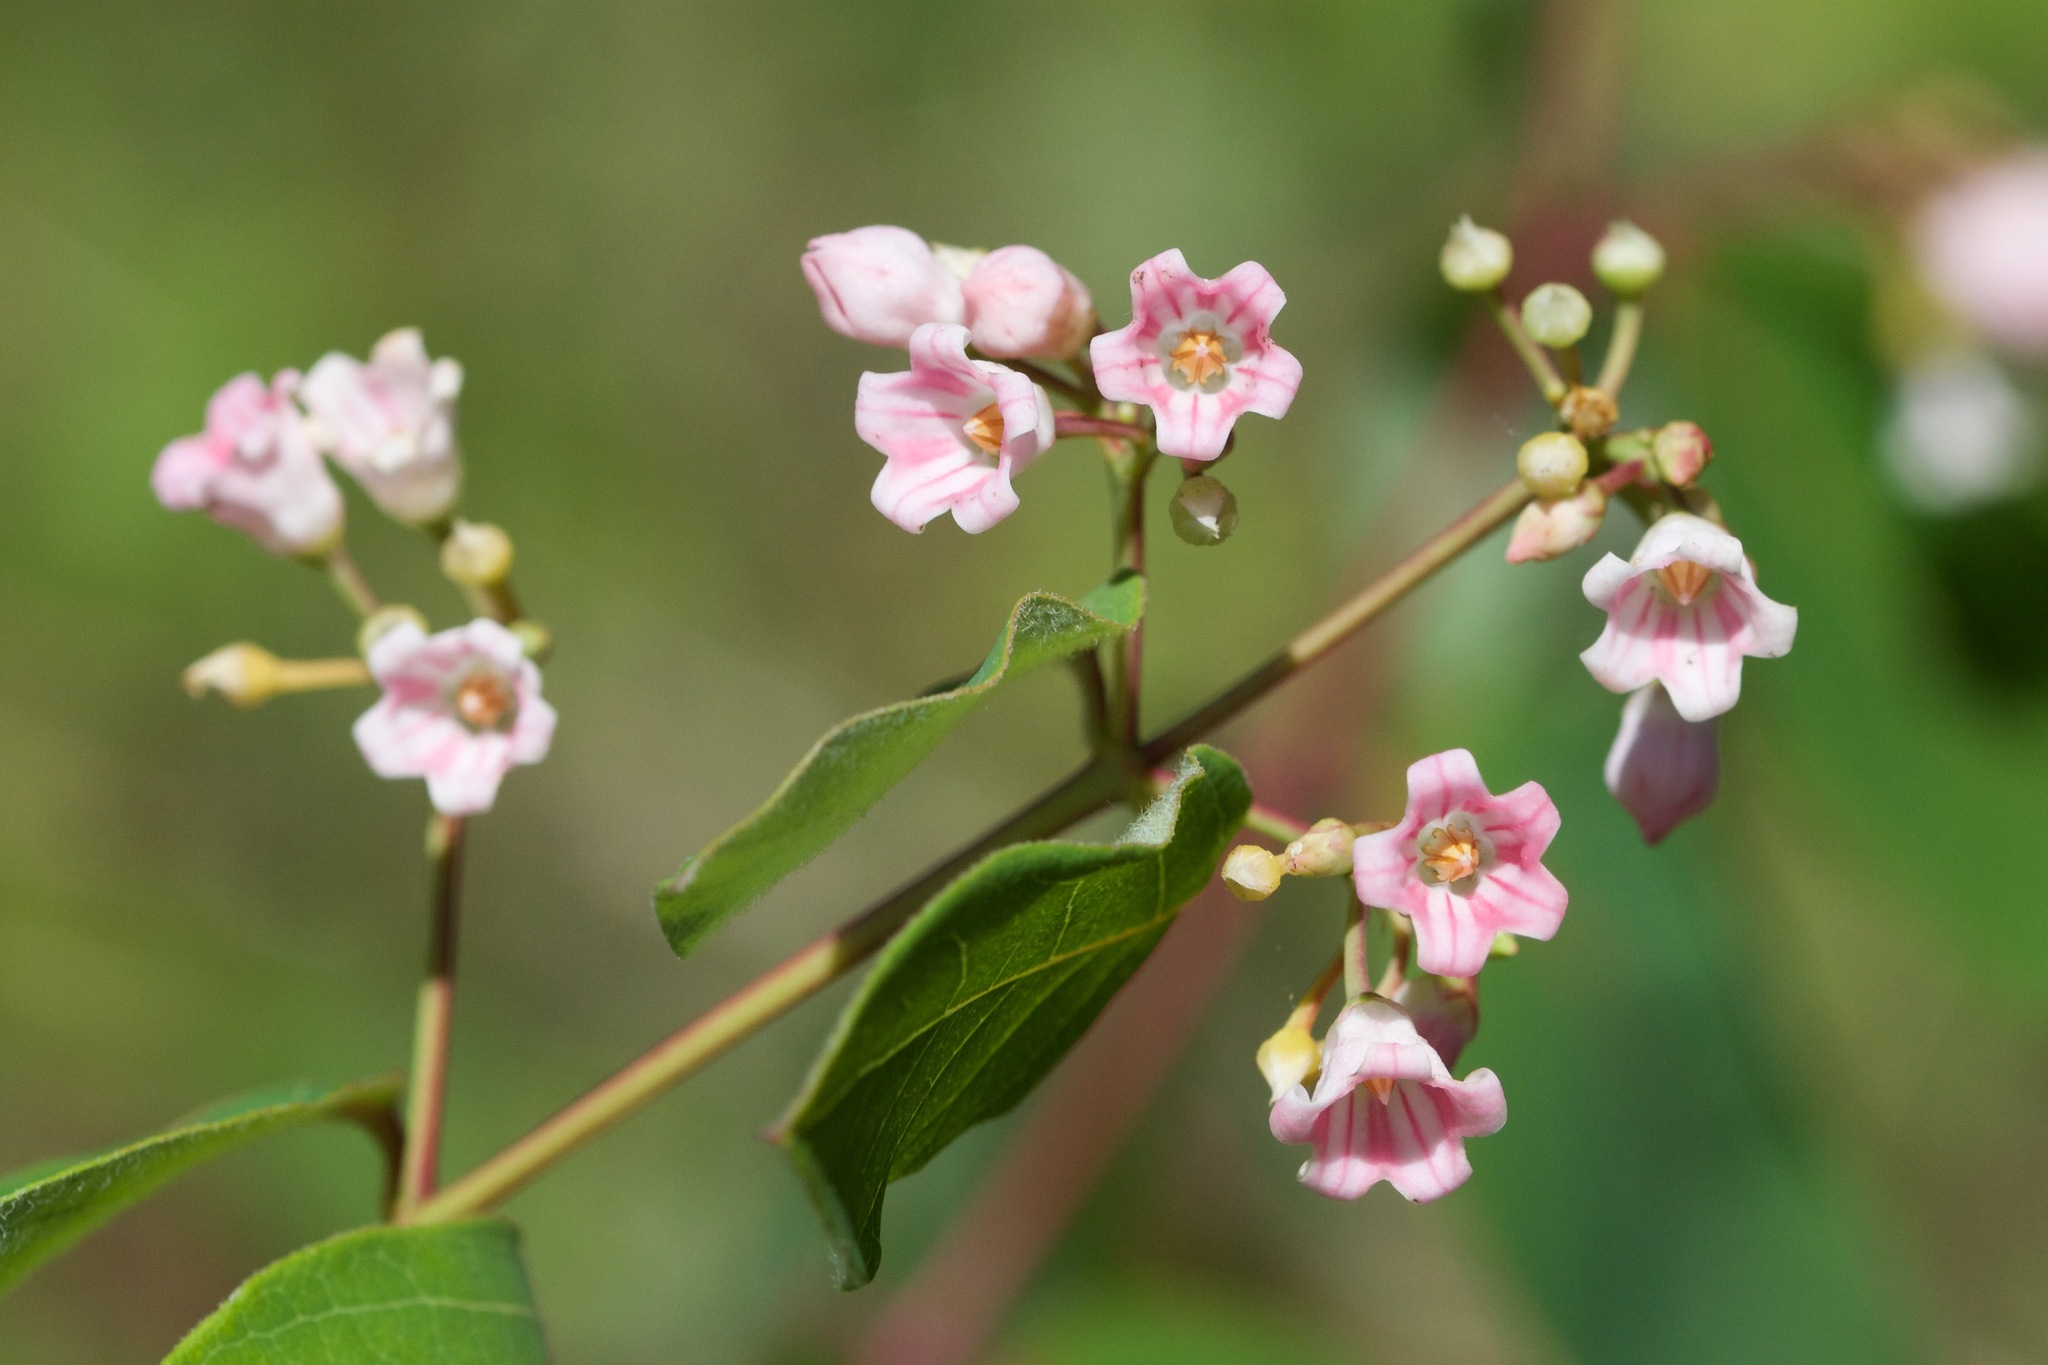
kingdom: Plantae
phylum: Tracheophyta
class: Magnoliopsida
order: Gentianales
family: Apocynaceae
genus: Apocynum
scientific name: Apocynum androsaemifolium
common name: Spreading dogbane
